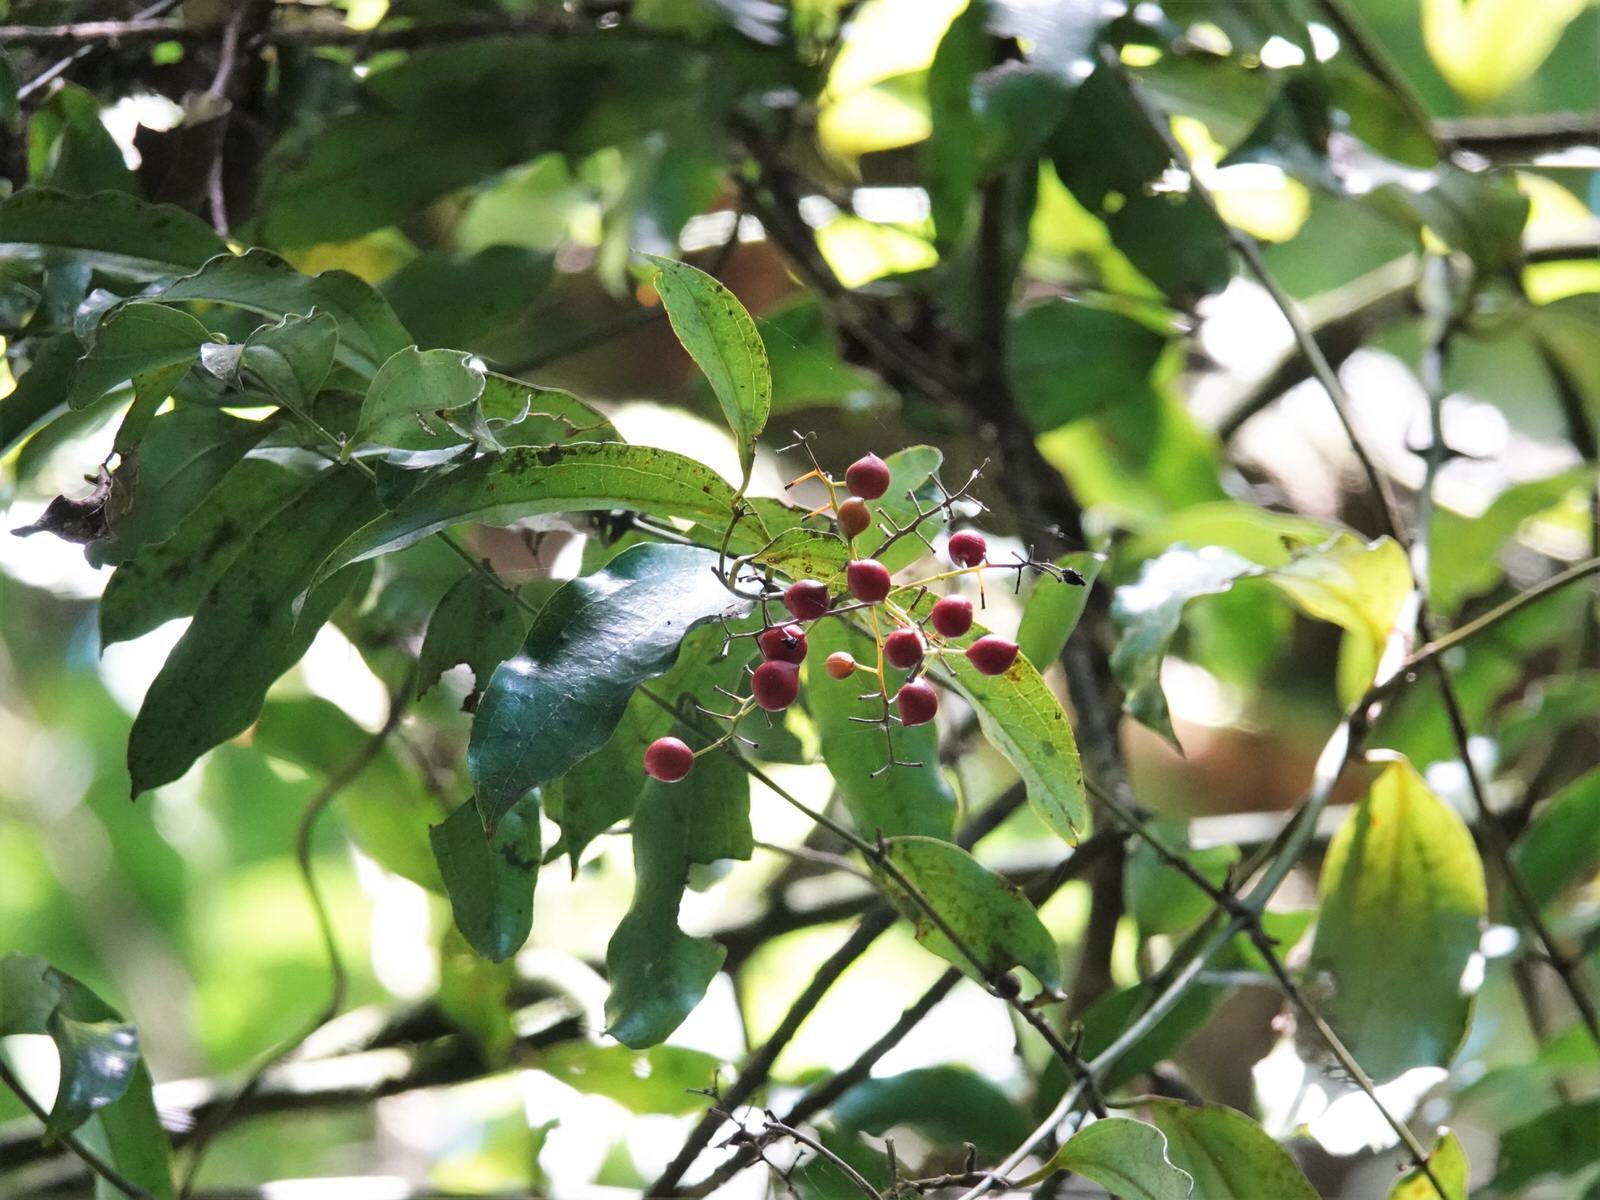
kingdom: Plantae
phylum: Tracheophyta
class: Liliopsida
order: Liliales
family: Ripogonaceae
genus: Ripogonum
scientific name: Ripogonum scandens
